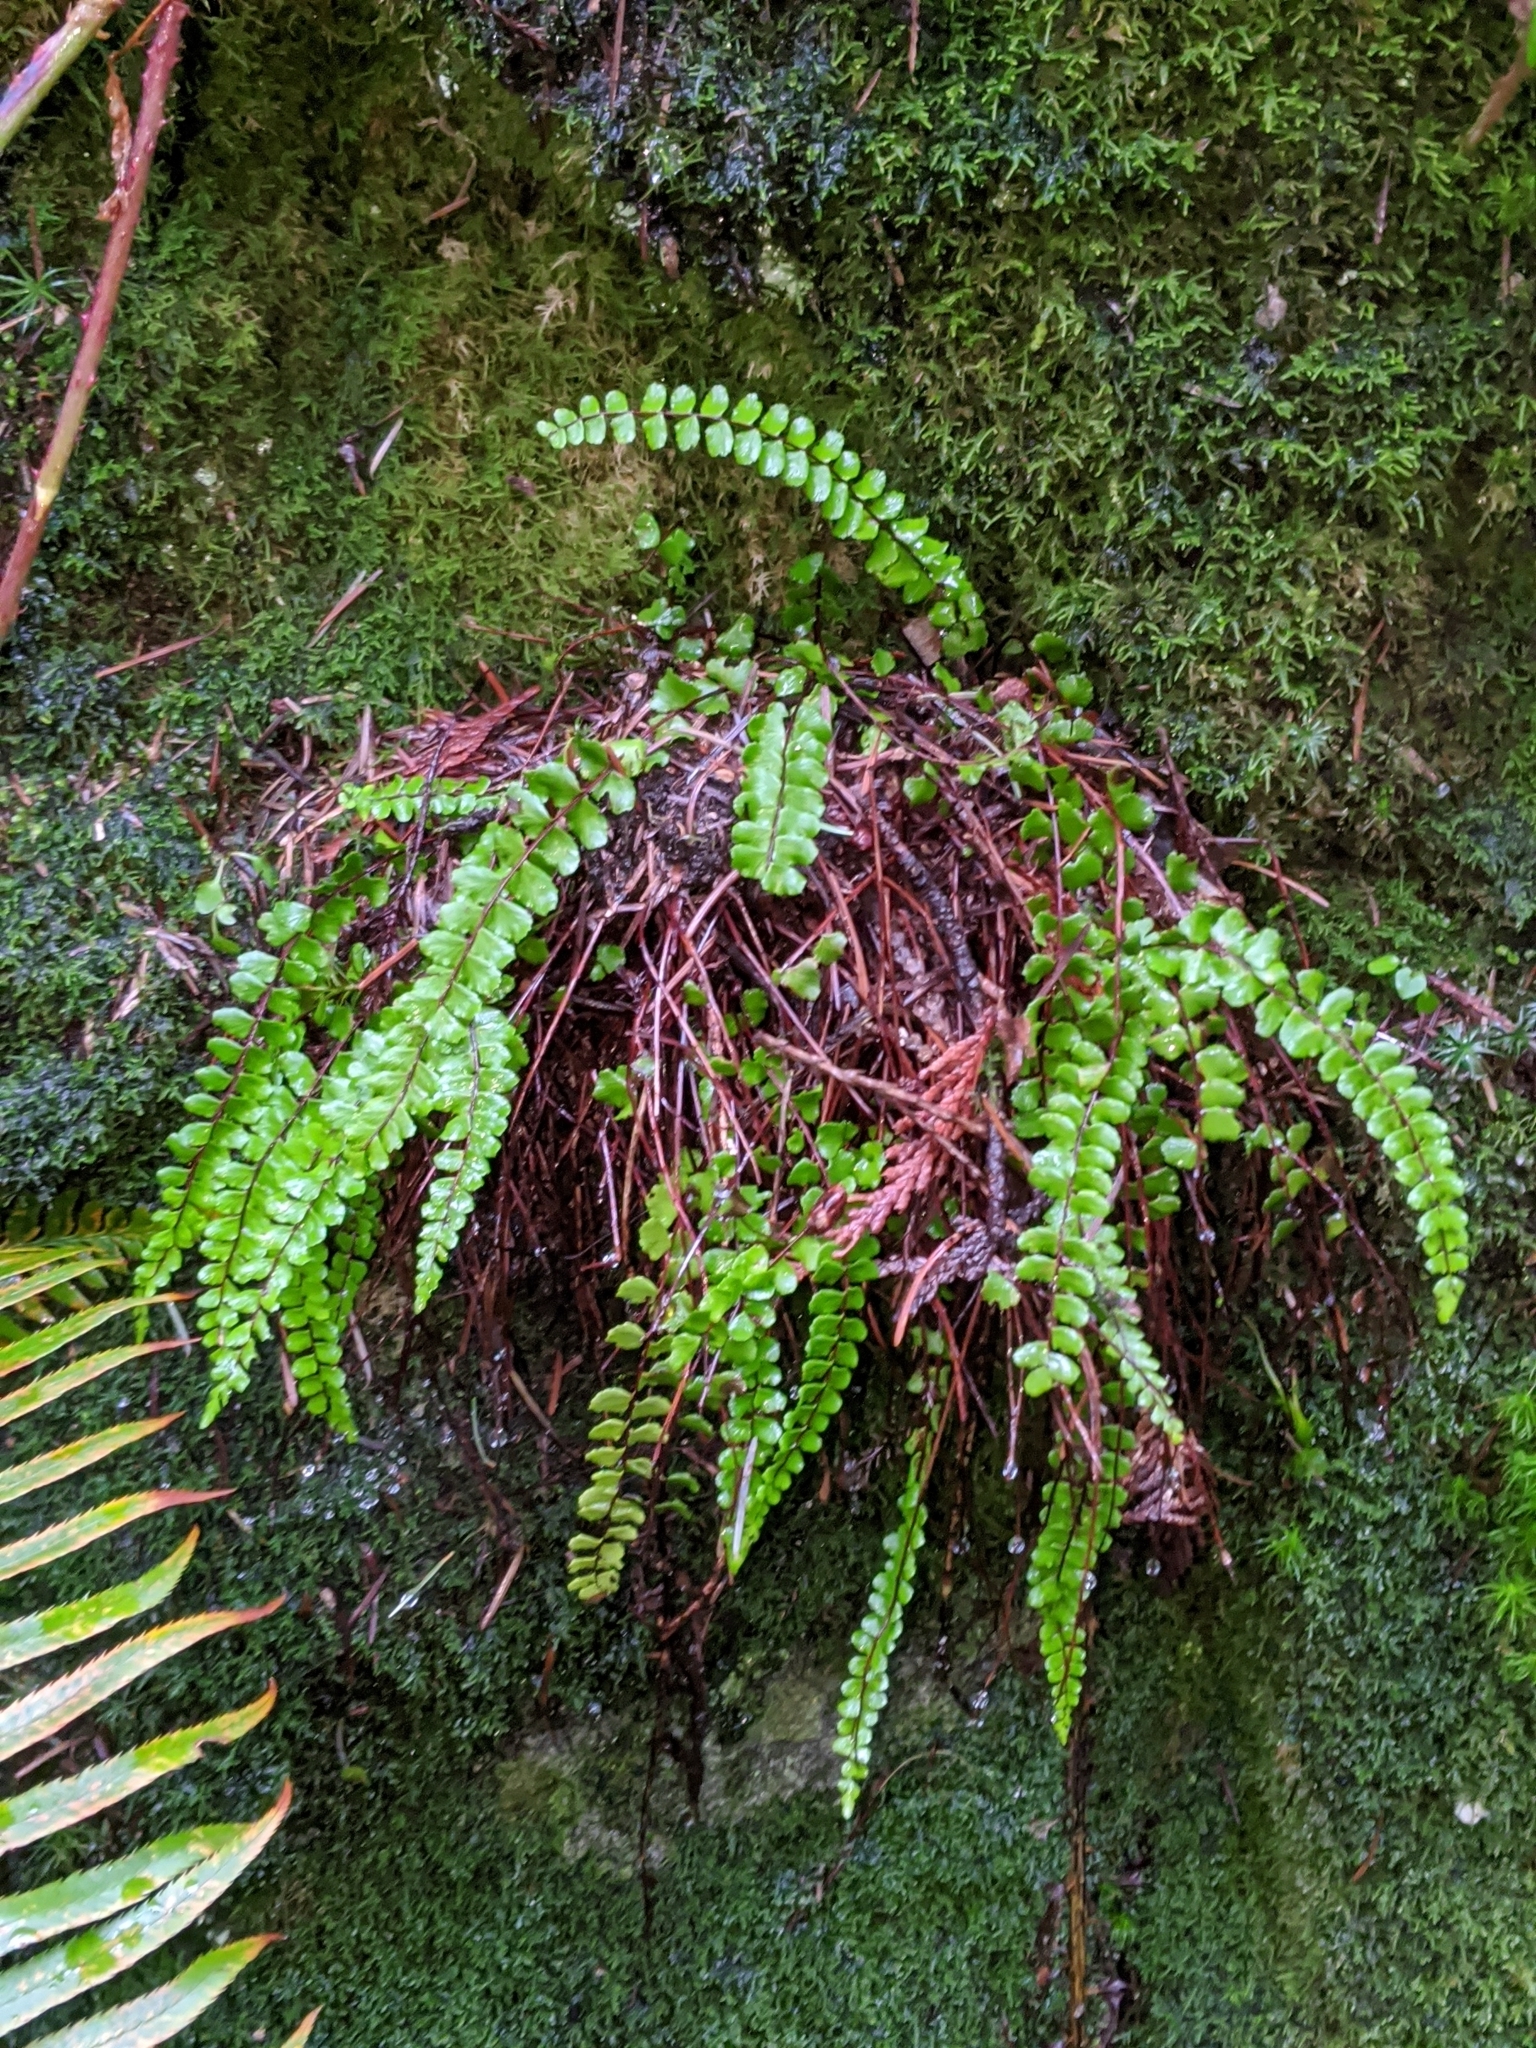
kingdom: Plantae
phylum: Tracheophyta
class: Polypodiopsida
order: Polypodiales
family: Aspleniaceae
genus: Asplenium
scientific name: Asplenium trichomanes
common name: Maidenhair spleenwort
